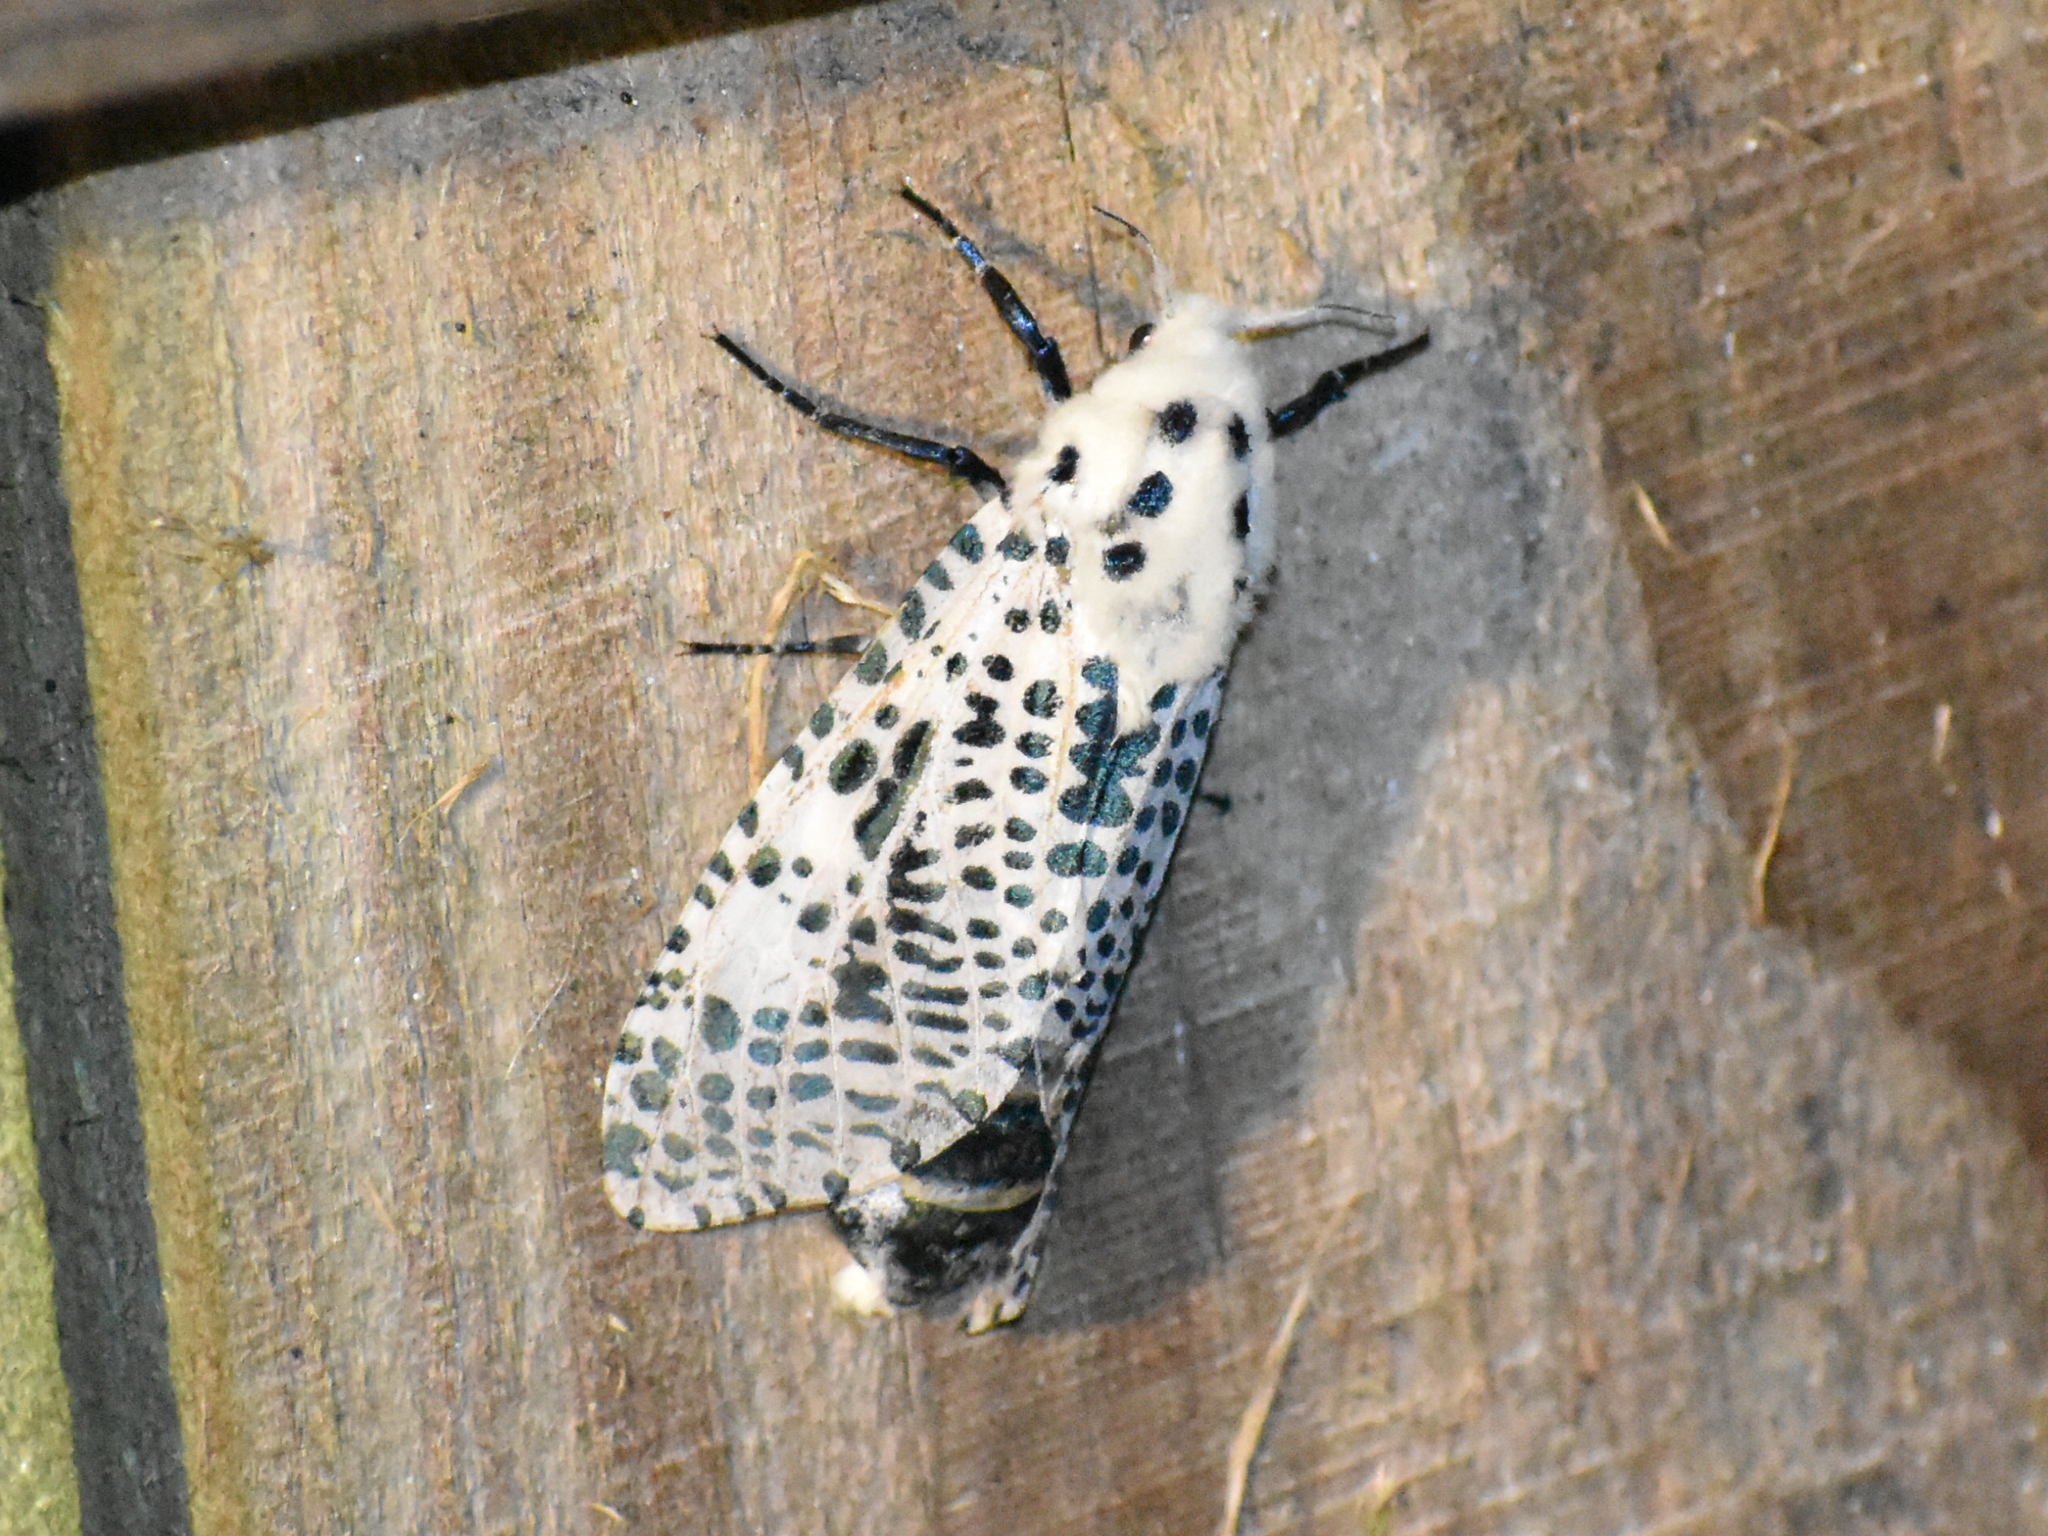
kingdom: Animalia
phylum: Arthropoda
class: Insecta
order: Lepidoptera
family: Cossidae
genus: Zeuzera
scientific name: Zeuzera pyrina
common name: Leopard moth
